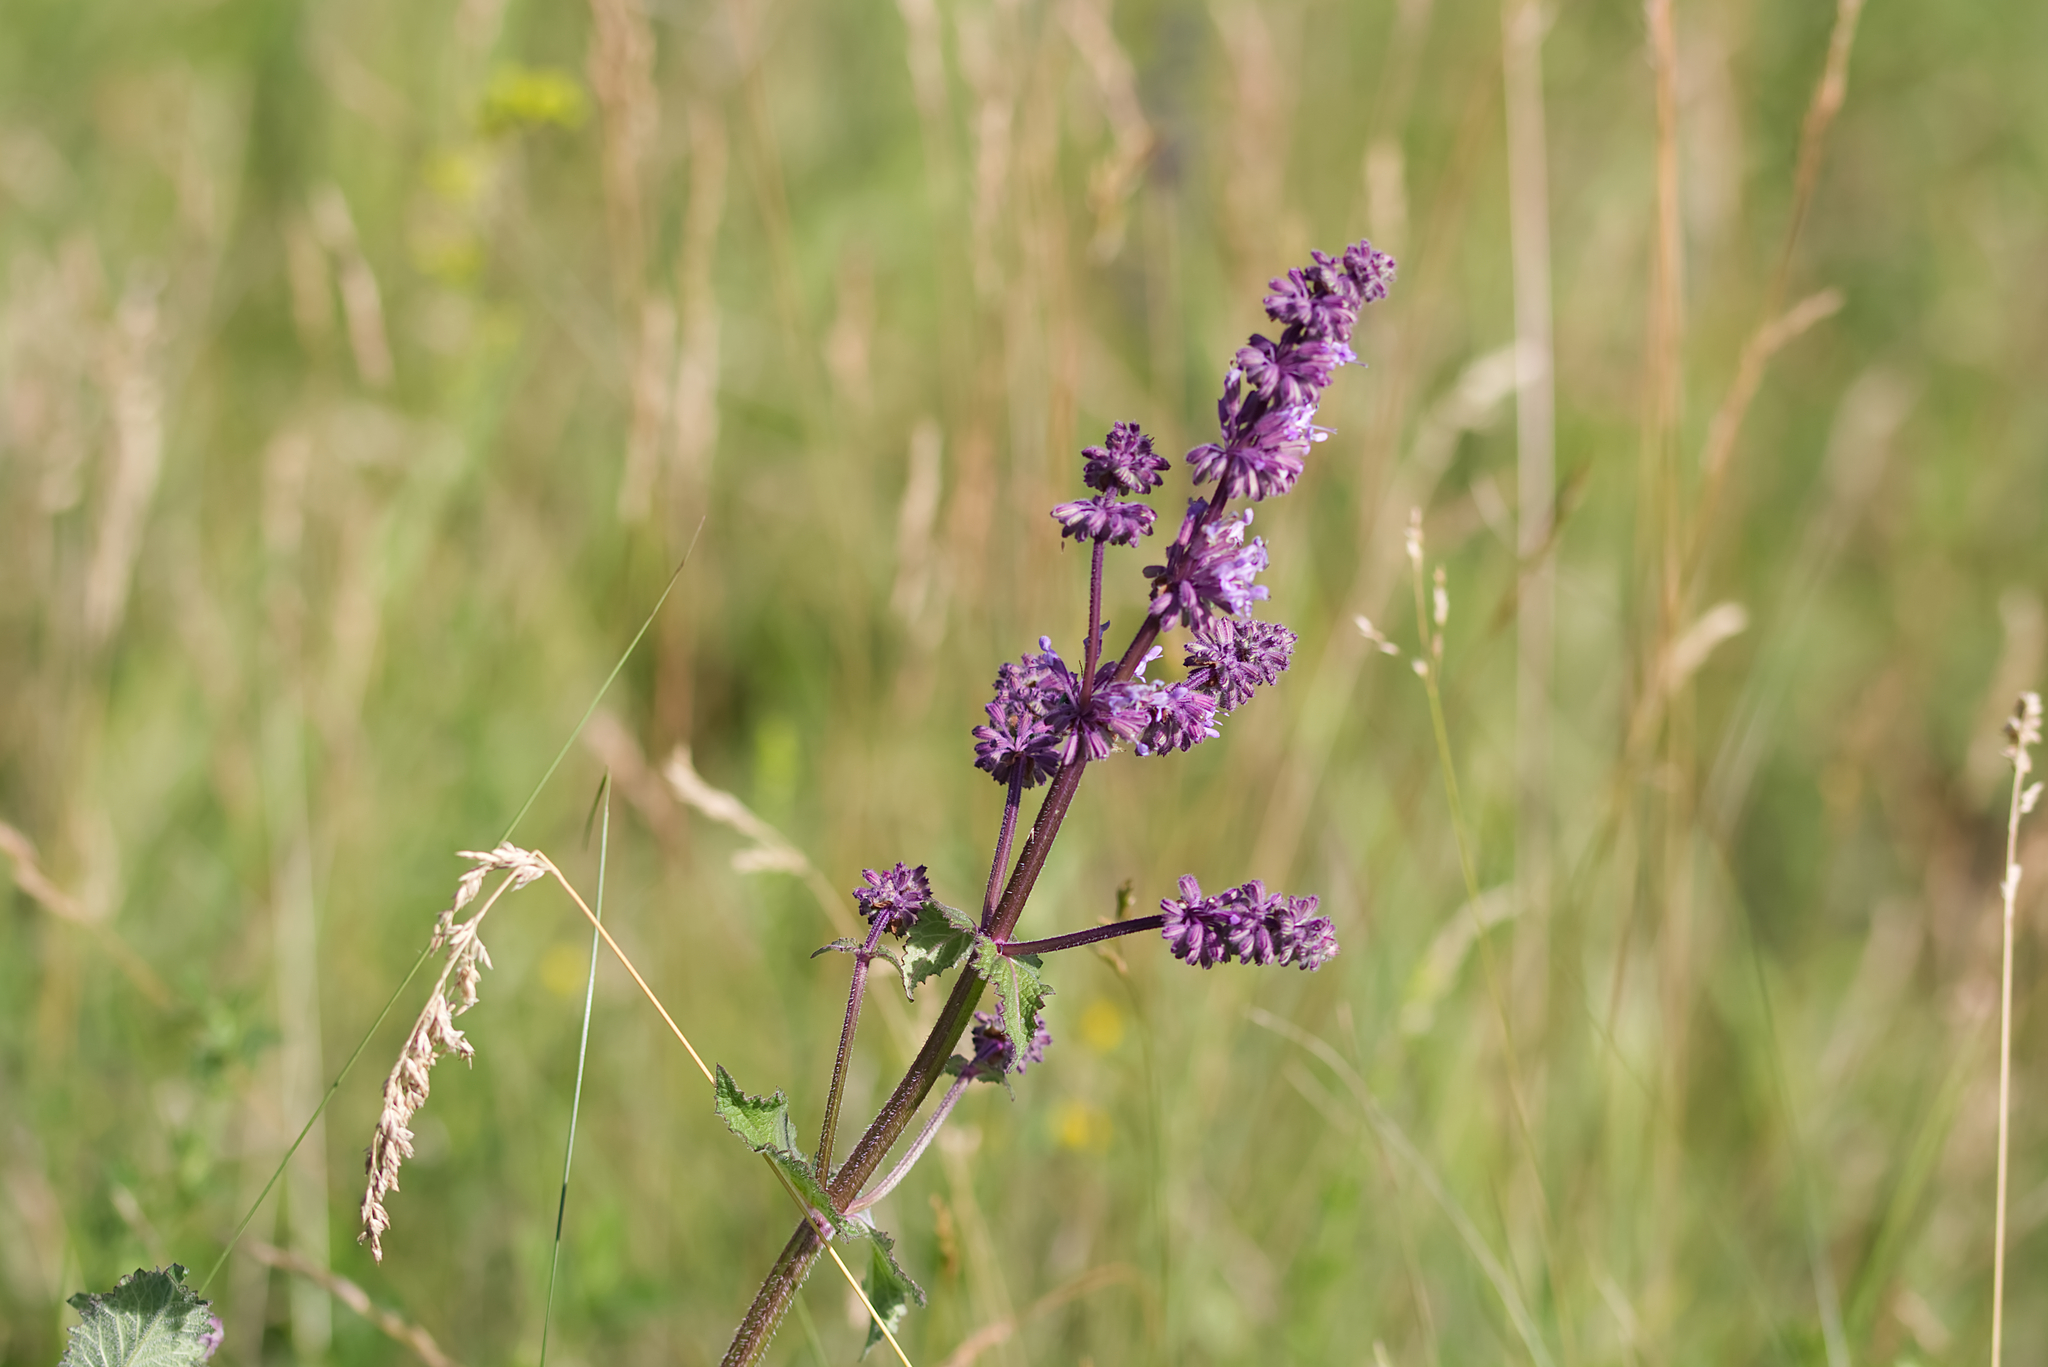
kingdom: Plantae
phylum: Tracheophyta
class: Magnoliopsida
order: Lamiales
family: Lamiaceae
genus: Salvia
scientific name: Salvia verticillata
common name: Whorled clary
